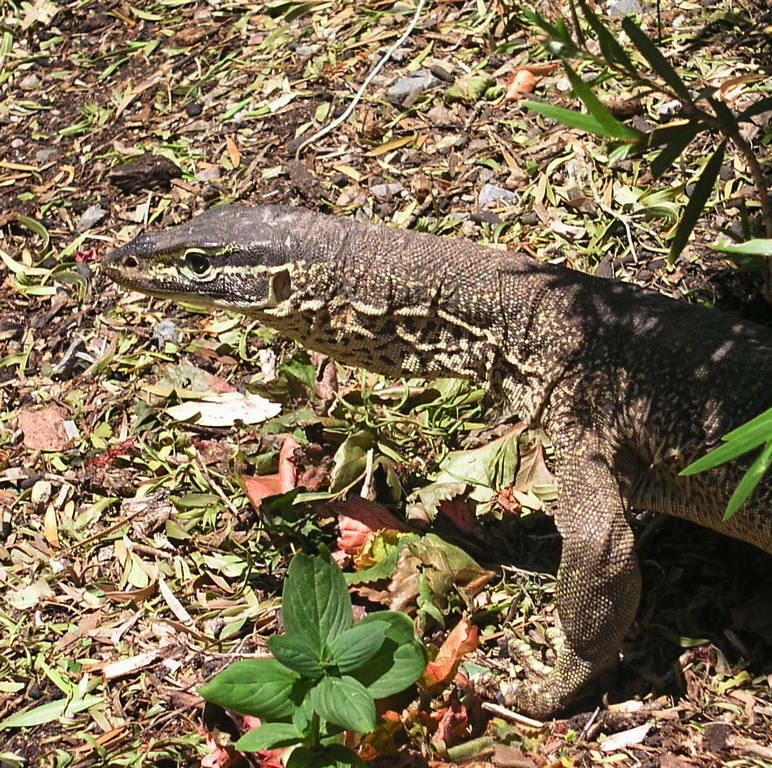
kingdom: Animalia
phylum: Chordata
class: Squamata
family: Varanidae
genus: Varanus
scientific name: Varanus panoptes
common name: Yellow-spotted monitor
